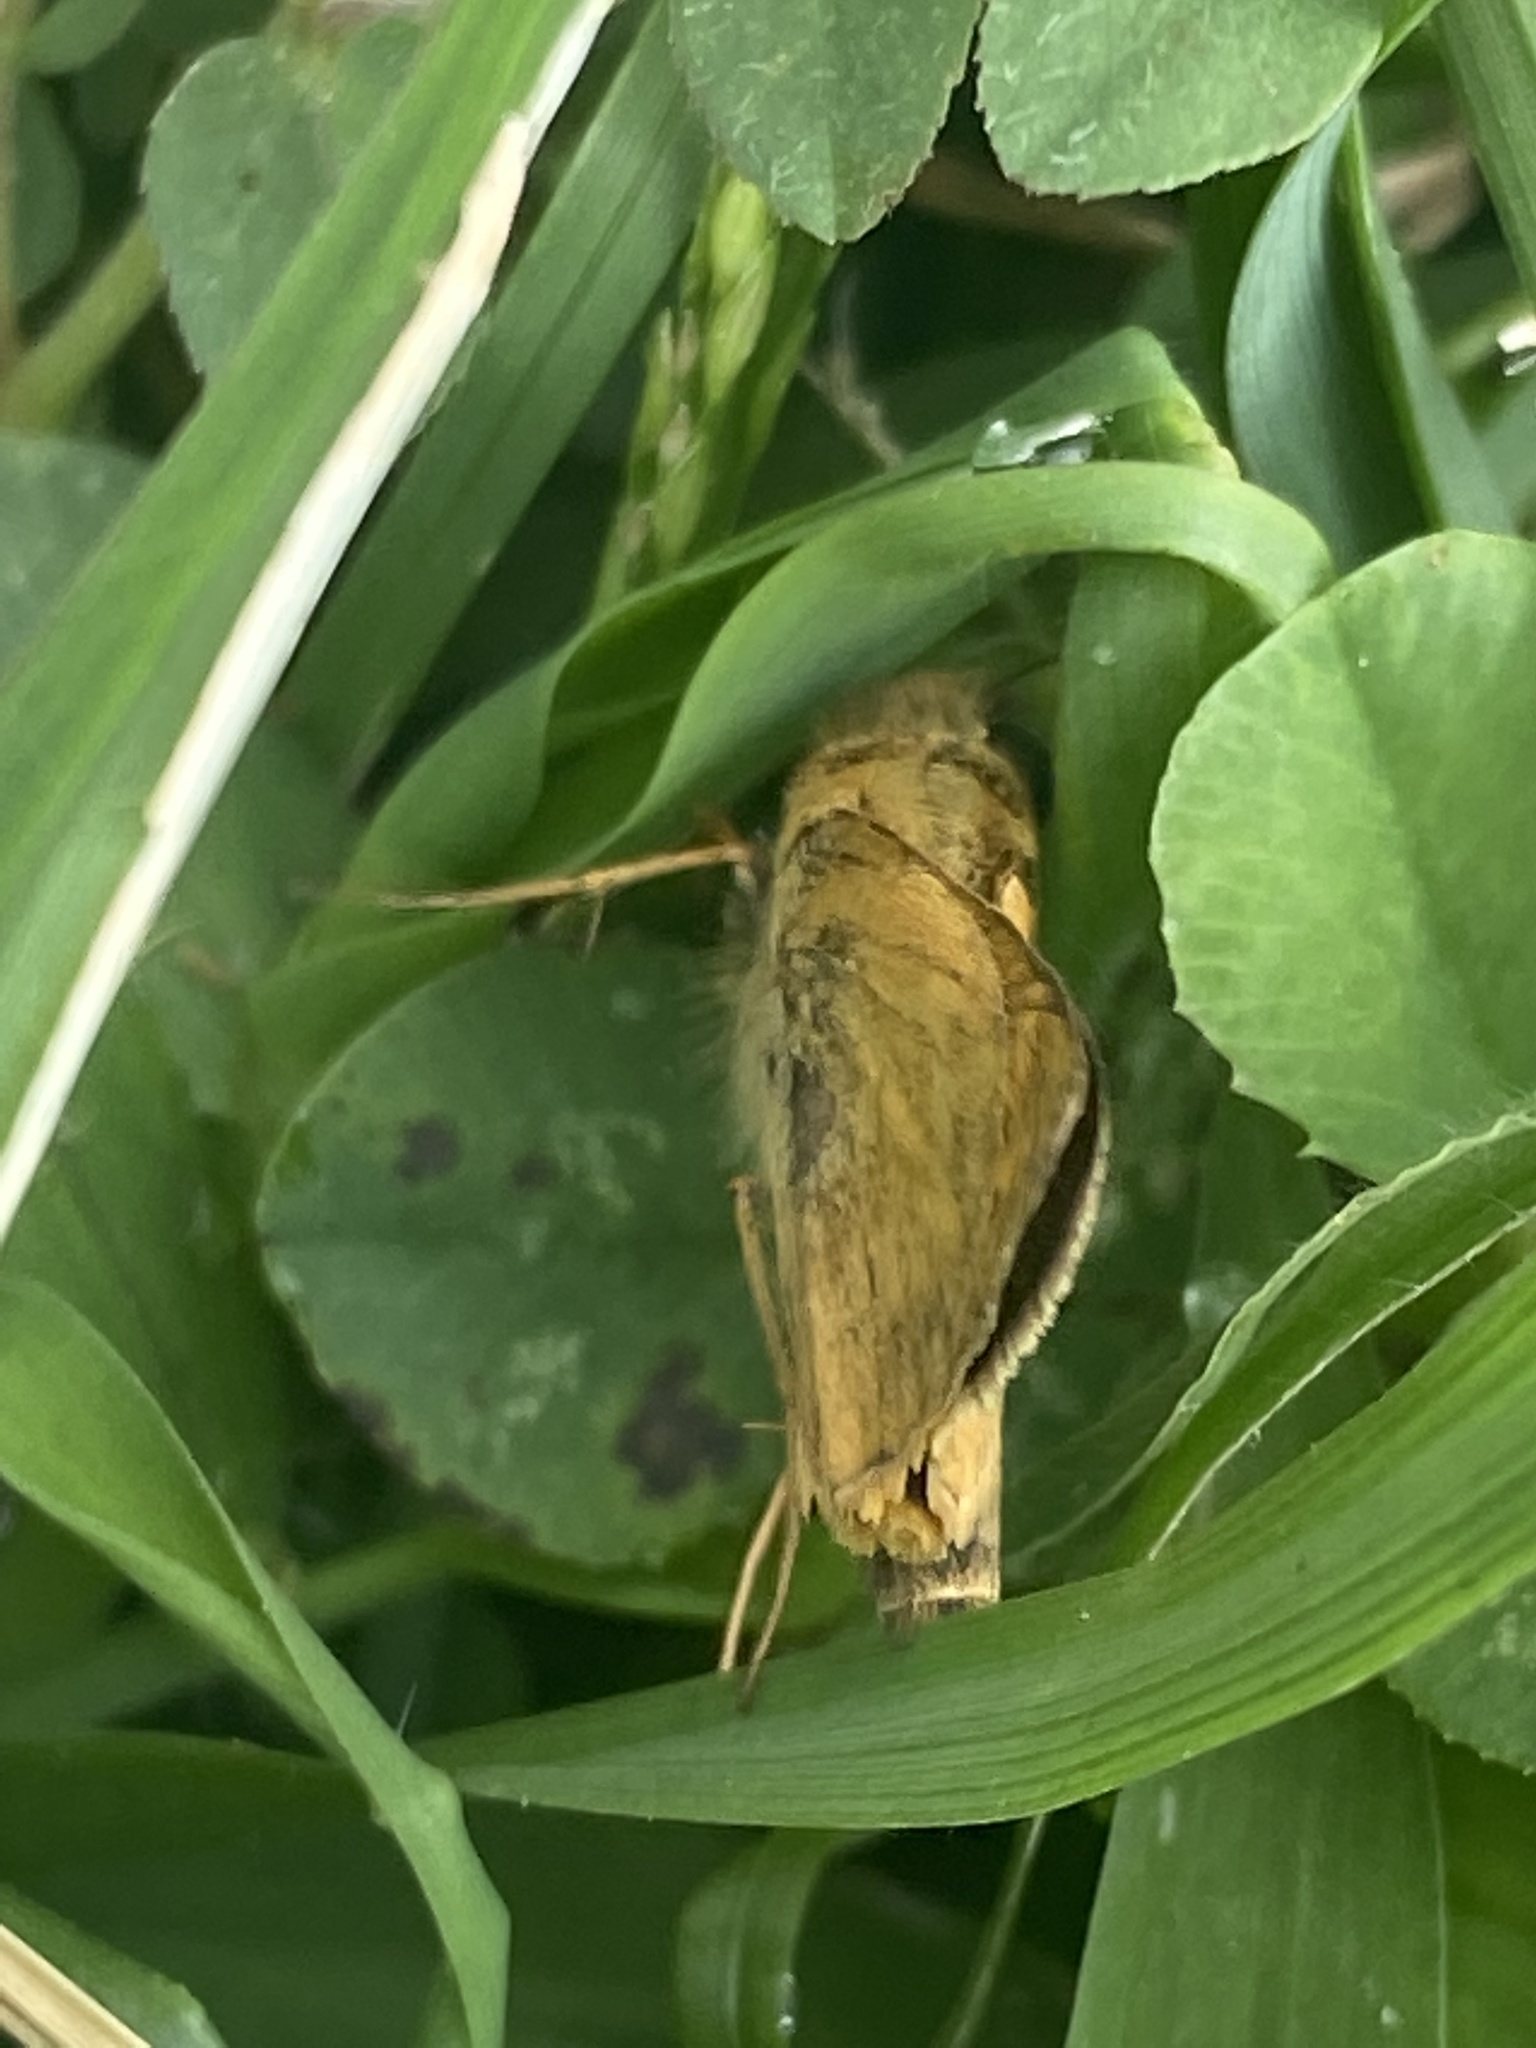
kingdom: Animalia
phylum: Arthropoda
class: Insecta
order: Lepidoptera
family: Hesperiidae
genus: Atalopedes
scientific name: Atalopedes
